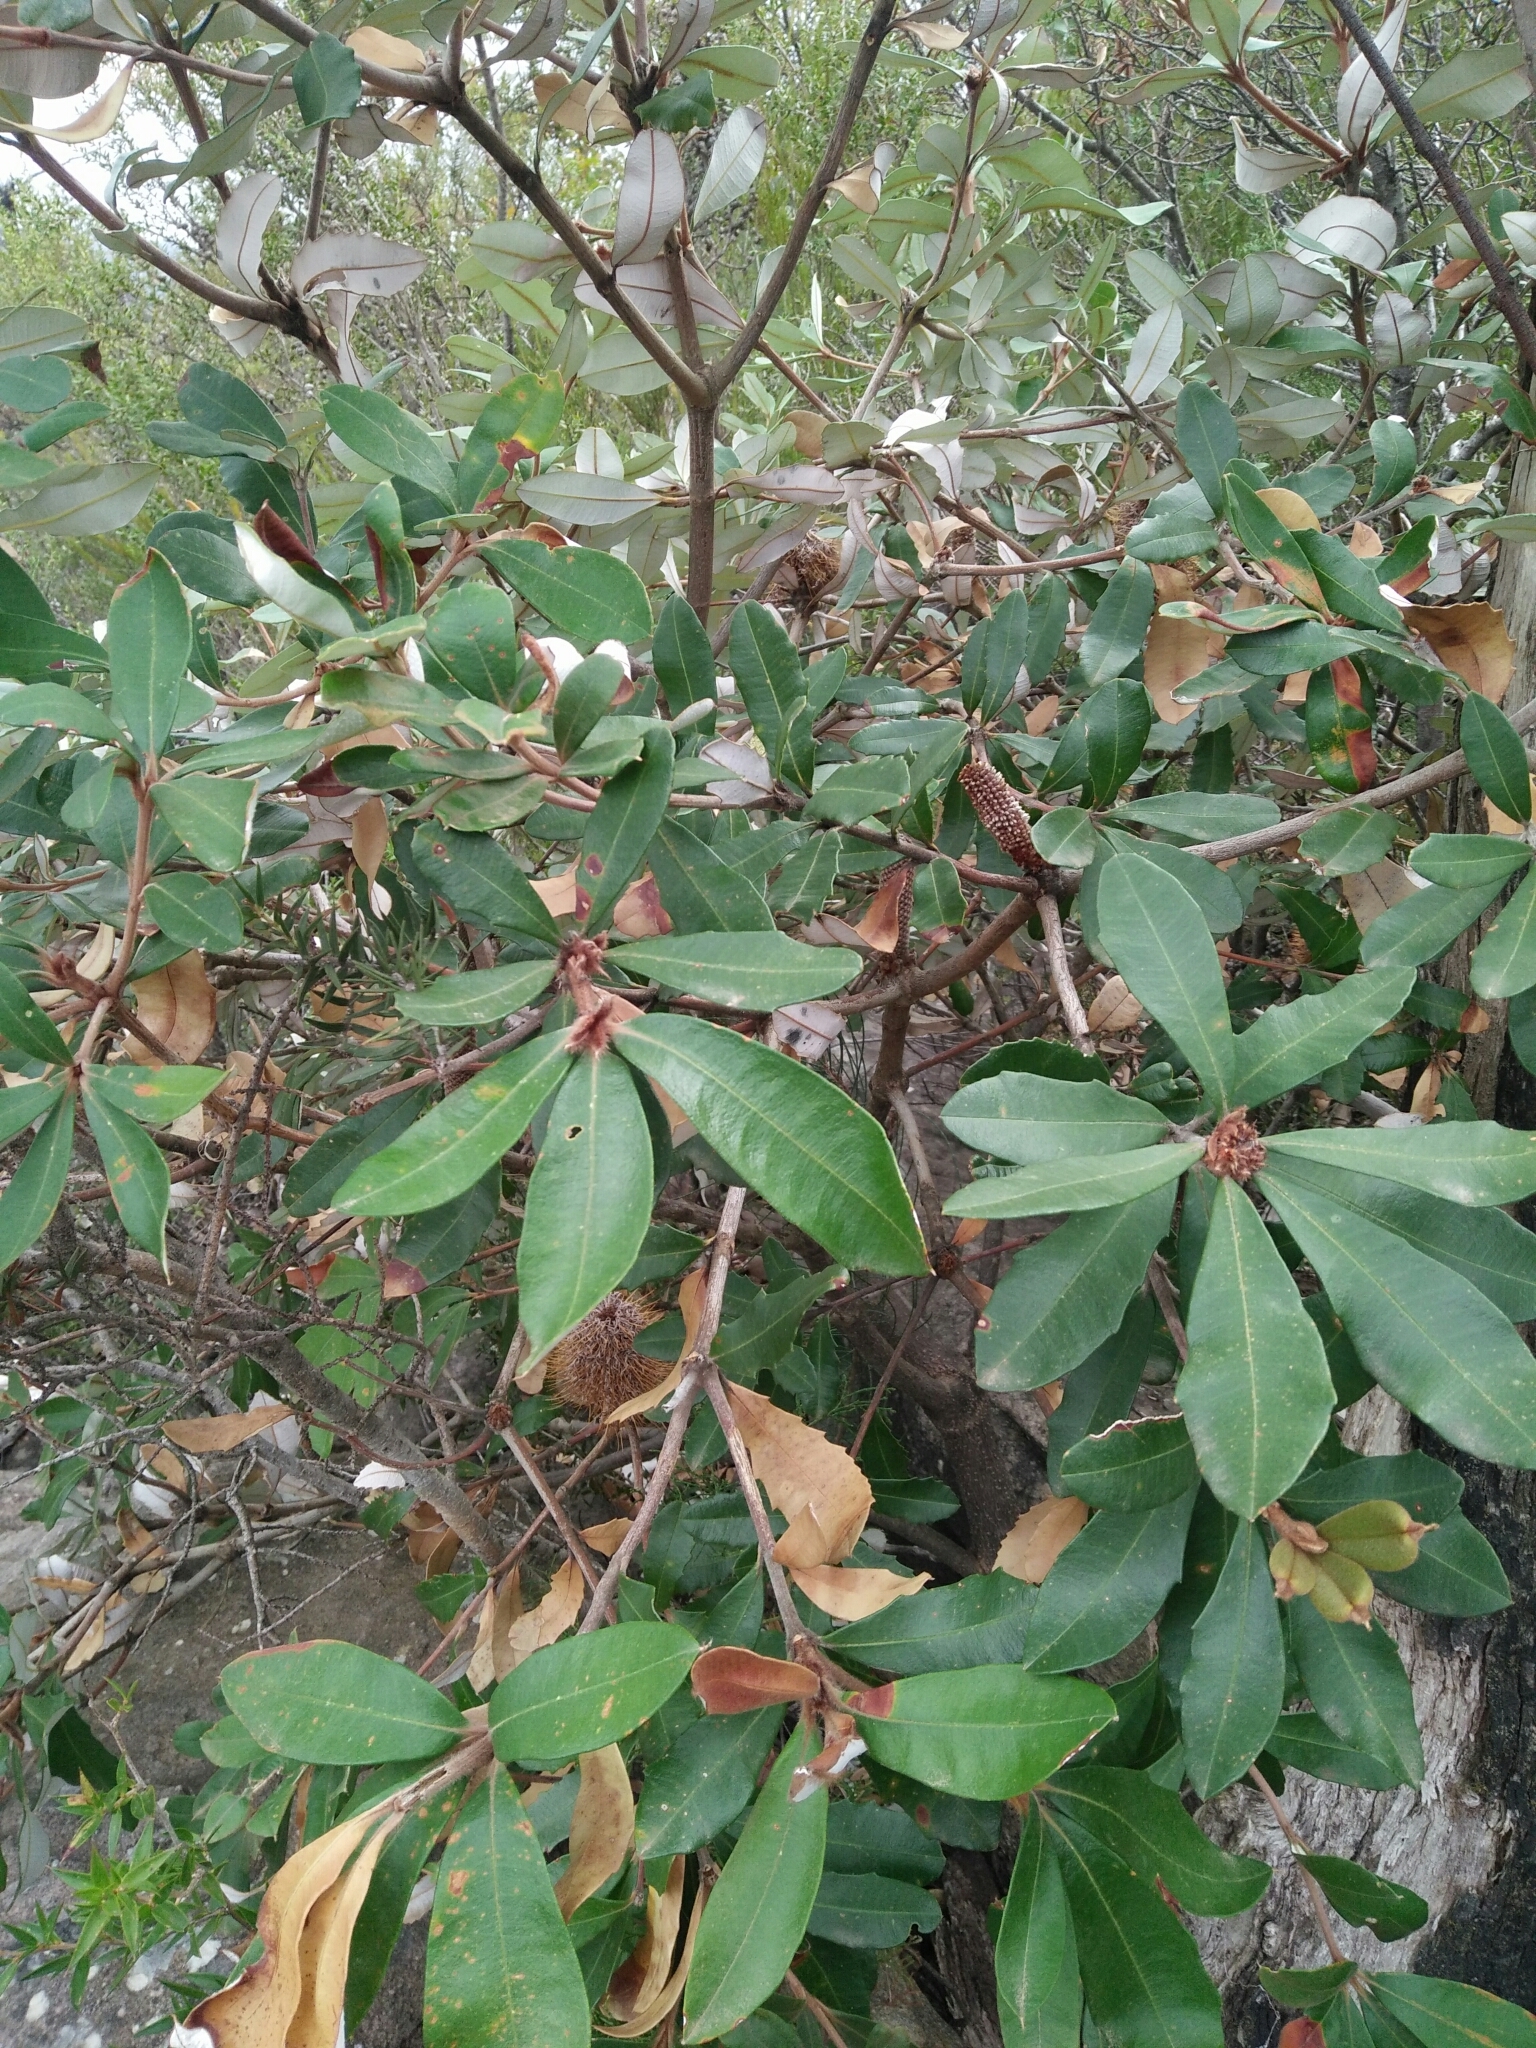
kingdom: Plantae
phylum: Tracheophyta
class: Magnoliopsida
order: Proteales
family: Proteaceae
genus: Banksia
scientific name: Banksia saxicola
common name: Grampians banksia
